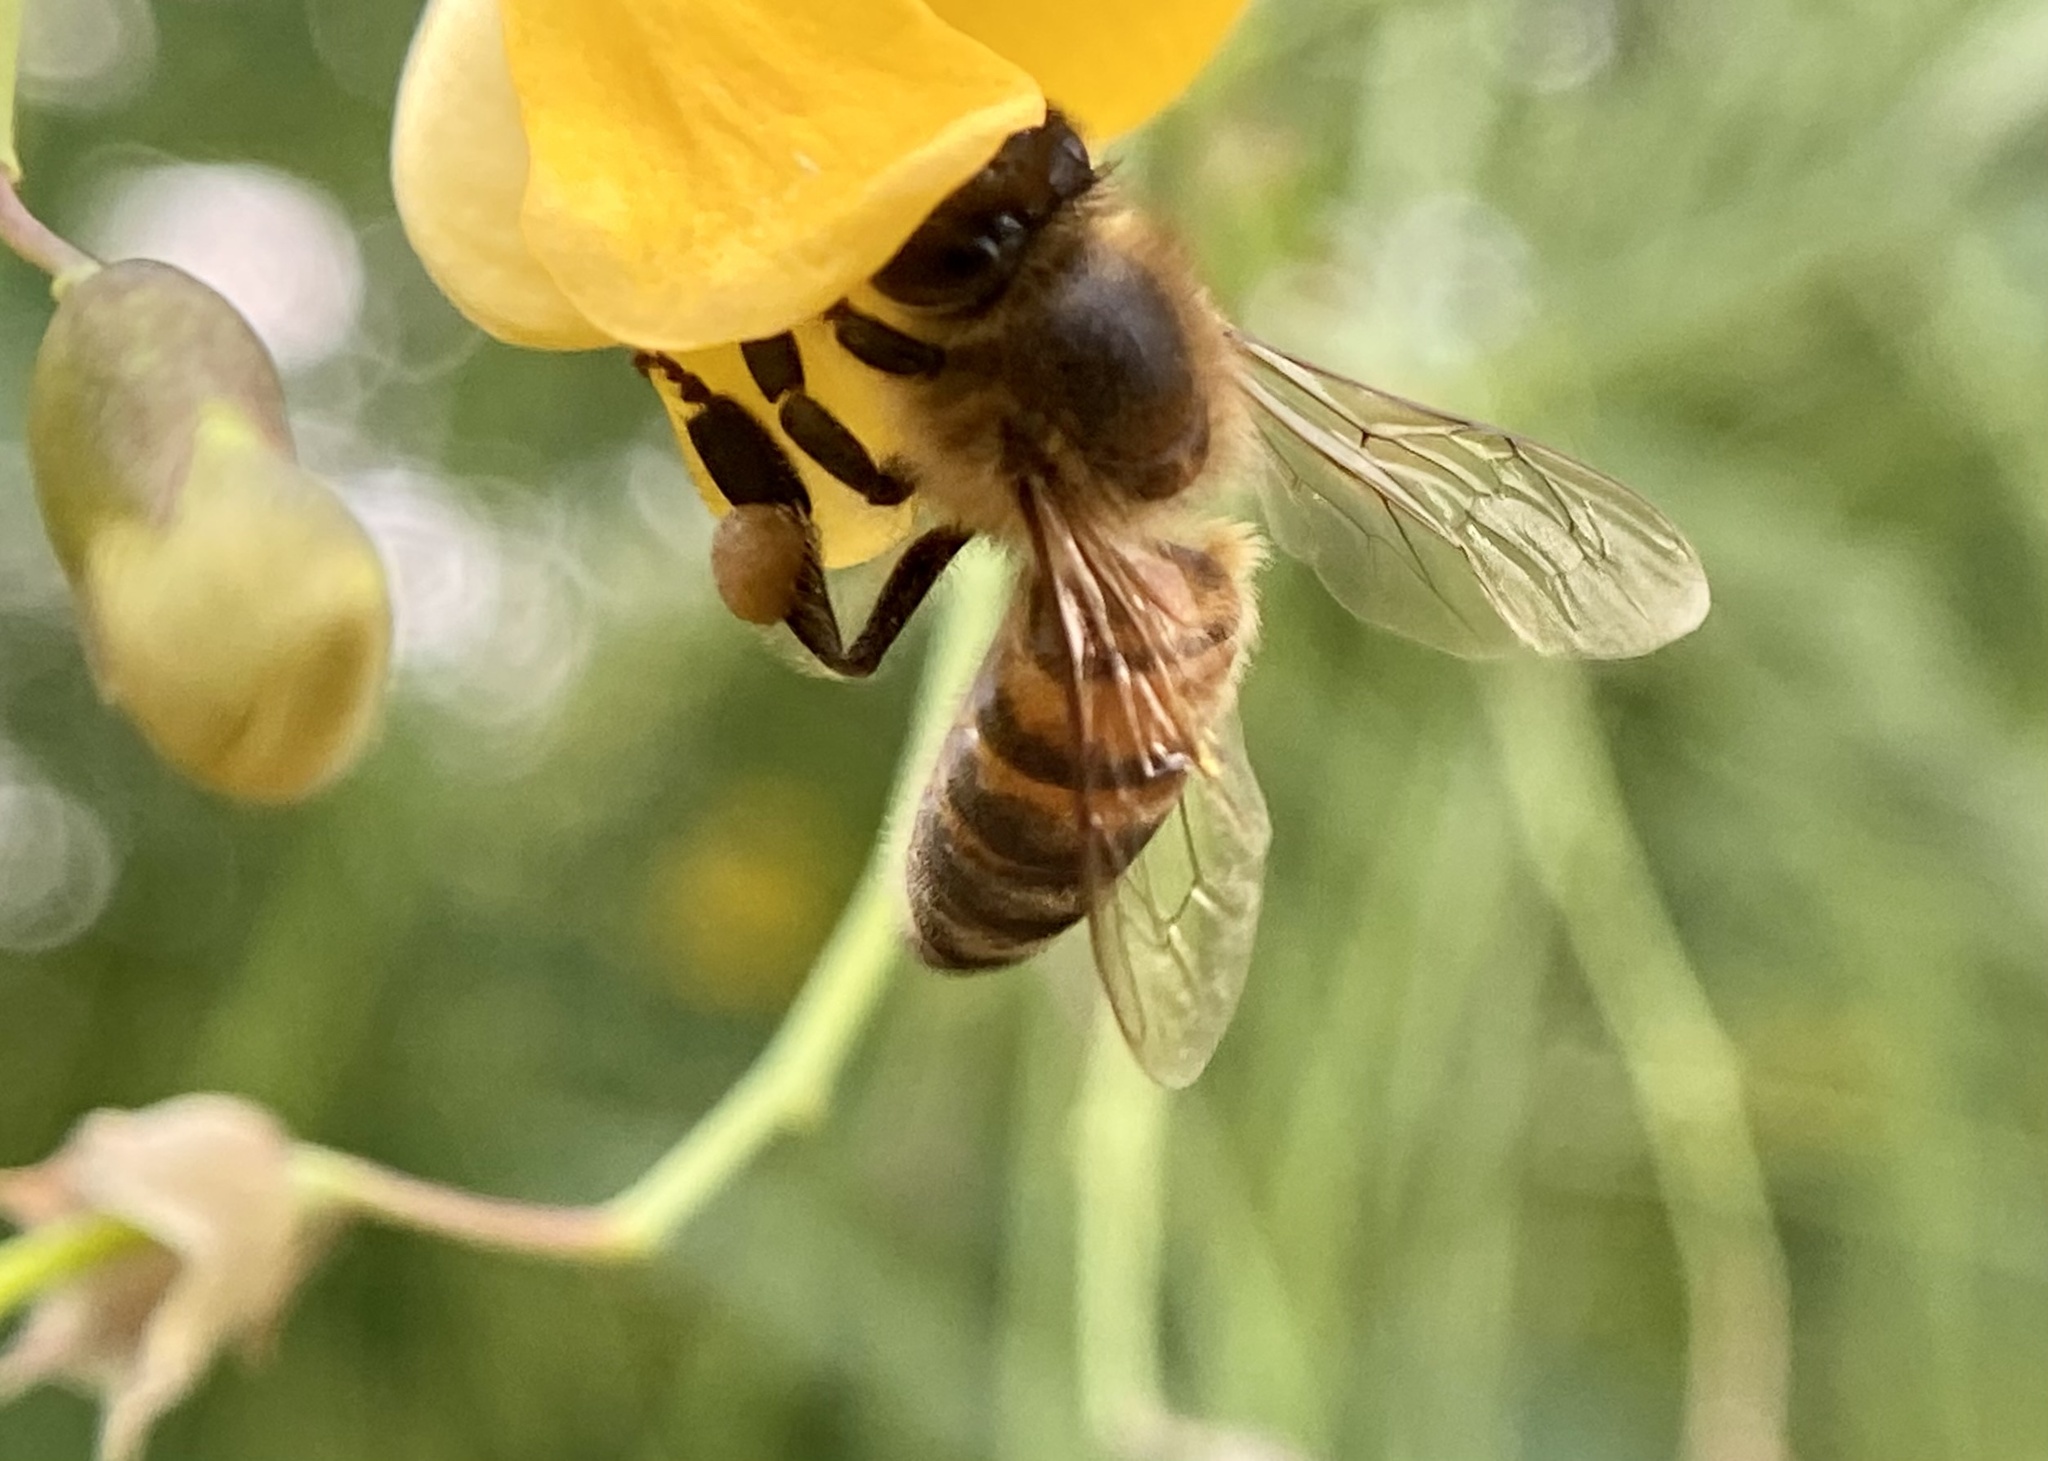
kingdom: Animalia
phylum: Arthropoda
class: Insecta
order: Hymenoptera
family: Apidae
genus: Apis
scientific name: Apis mellifera
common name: Honey bee
